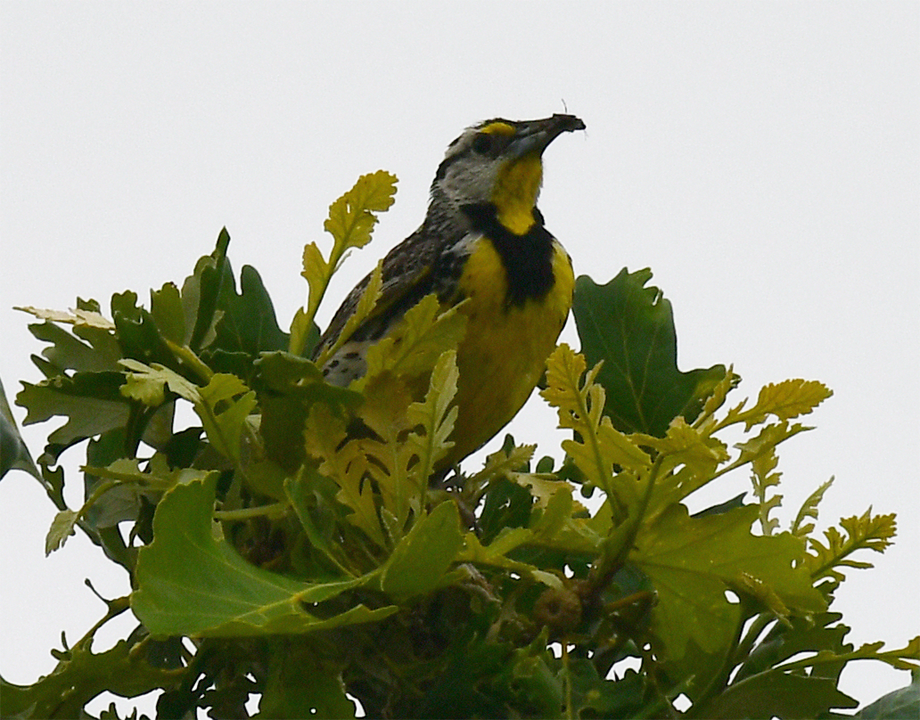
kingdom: Animalia
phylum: Chordata
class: Aves
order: Passeriformes
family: Icteridae
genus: Sturnella
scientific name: Sturnella magna
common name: Eastern meadowlark
